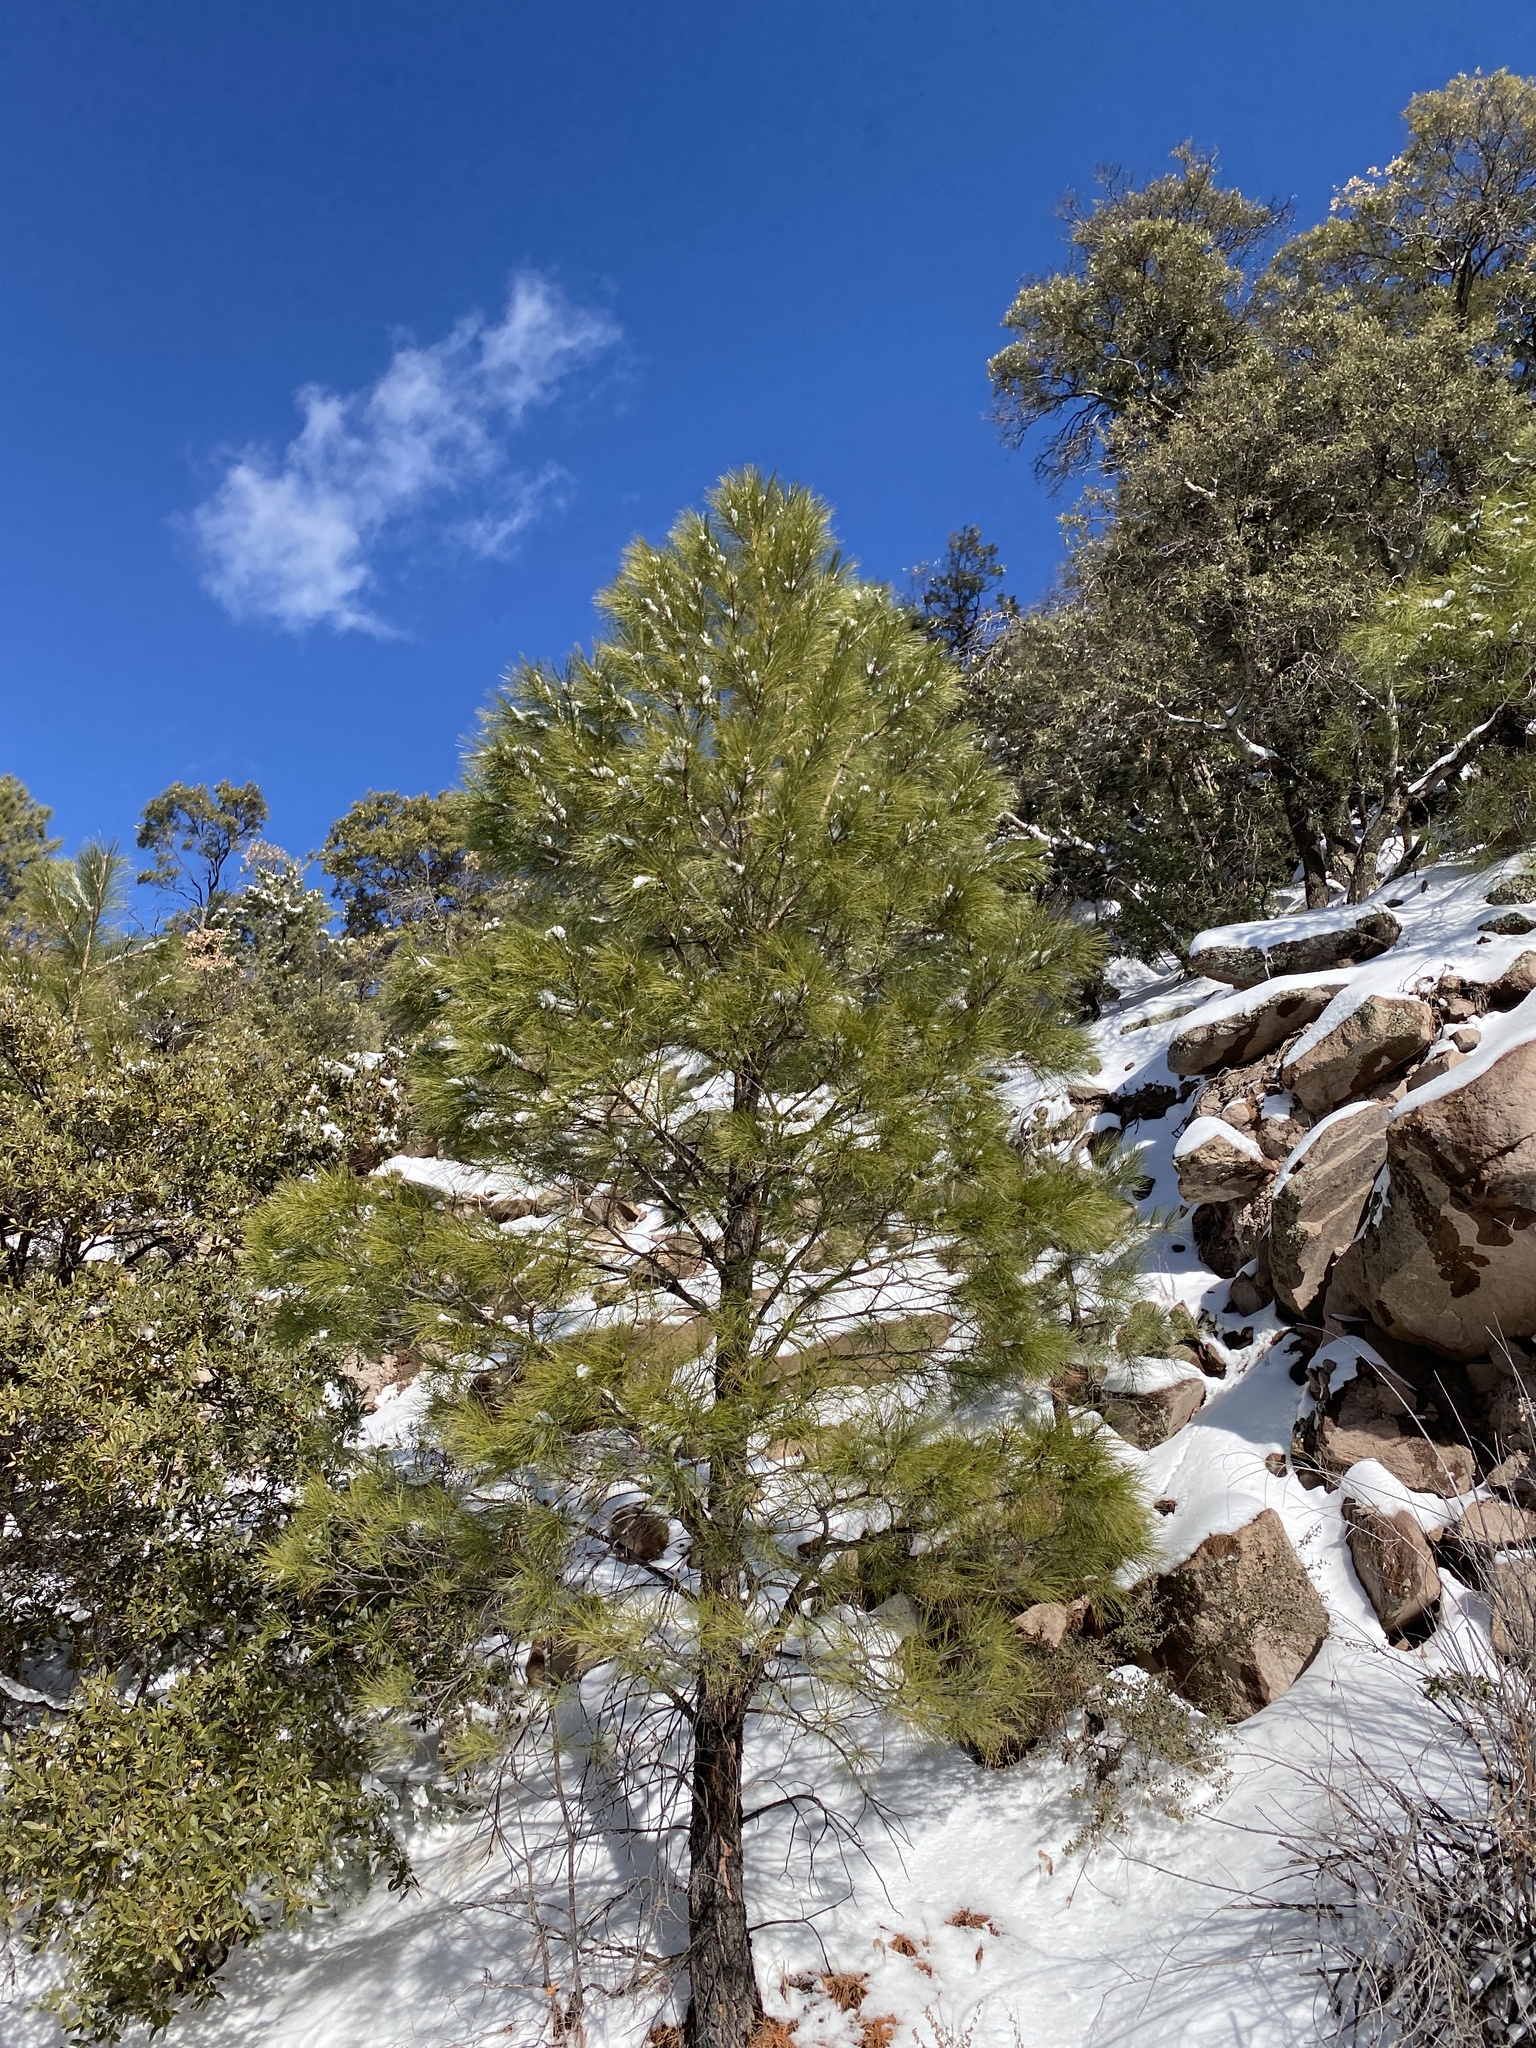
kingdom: Plantae
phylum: Tracheophyta
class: Pinopsida
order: Pinales
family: Pinaceae
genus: Pinus
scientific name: Pinus ponderosa
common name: Western yellow-pine
